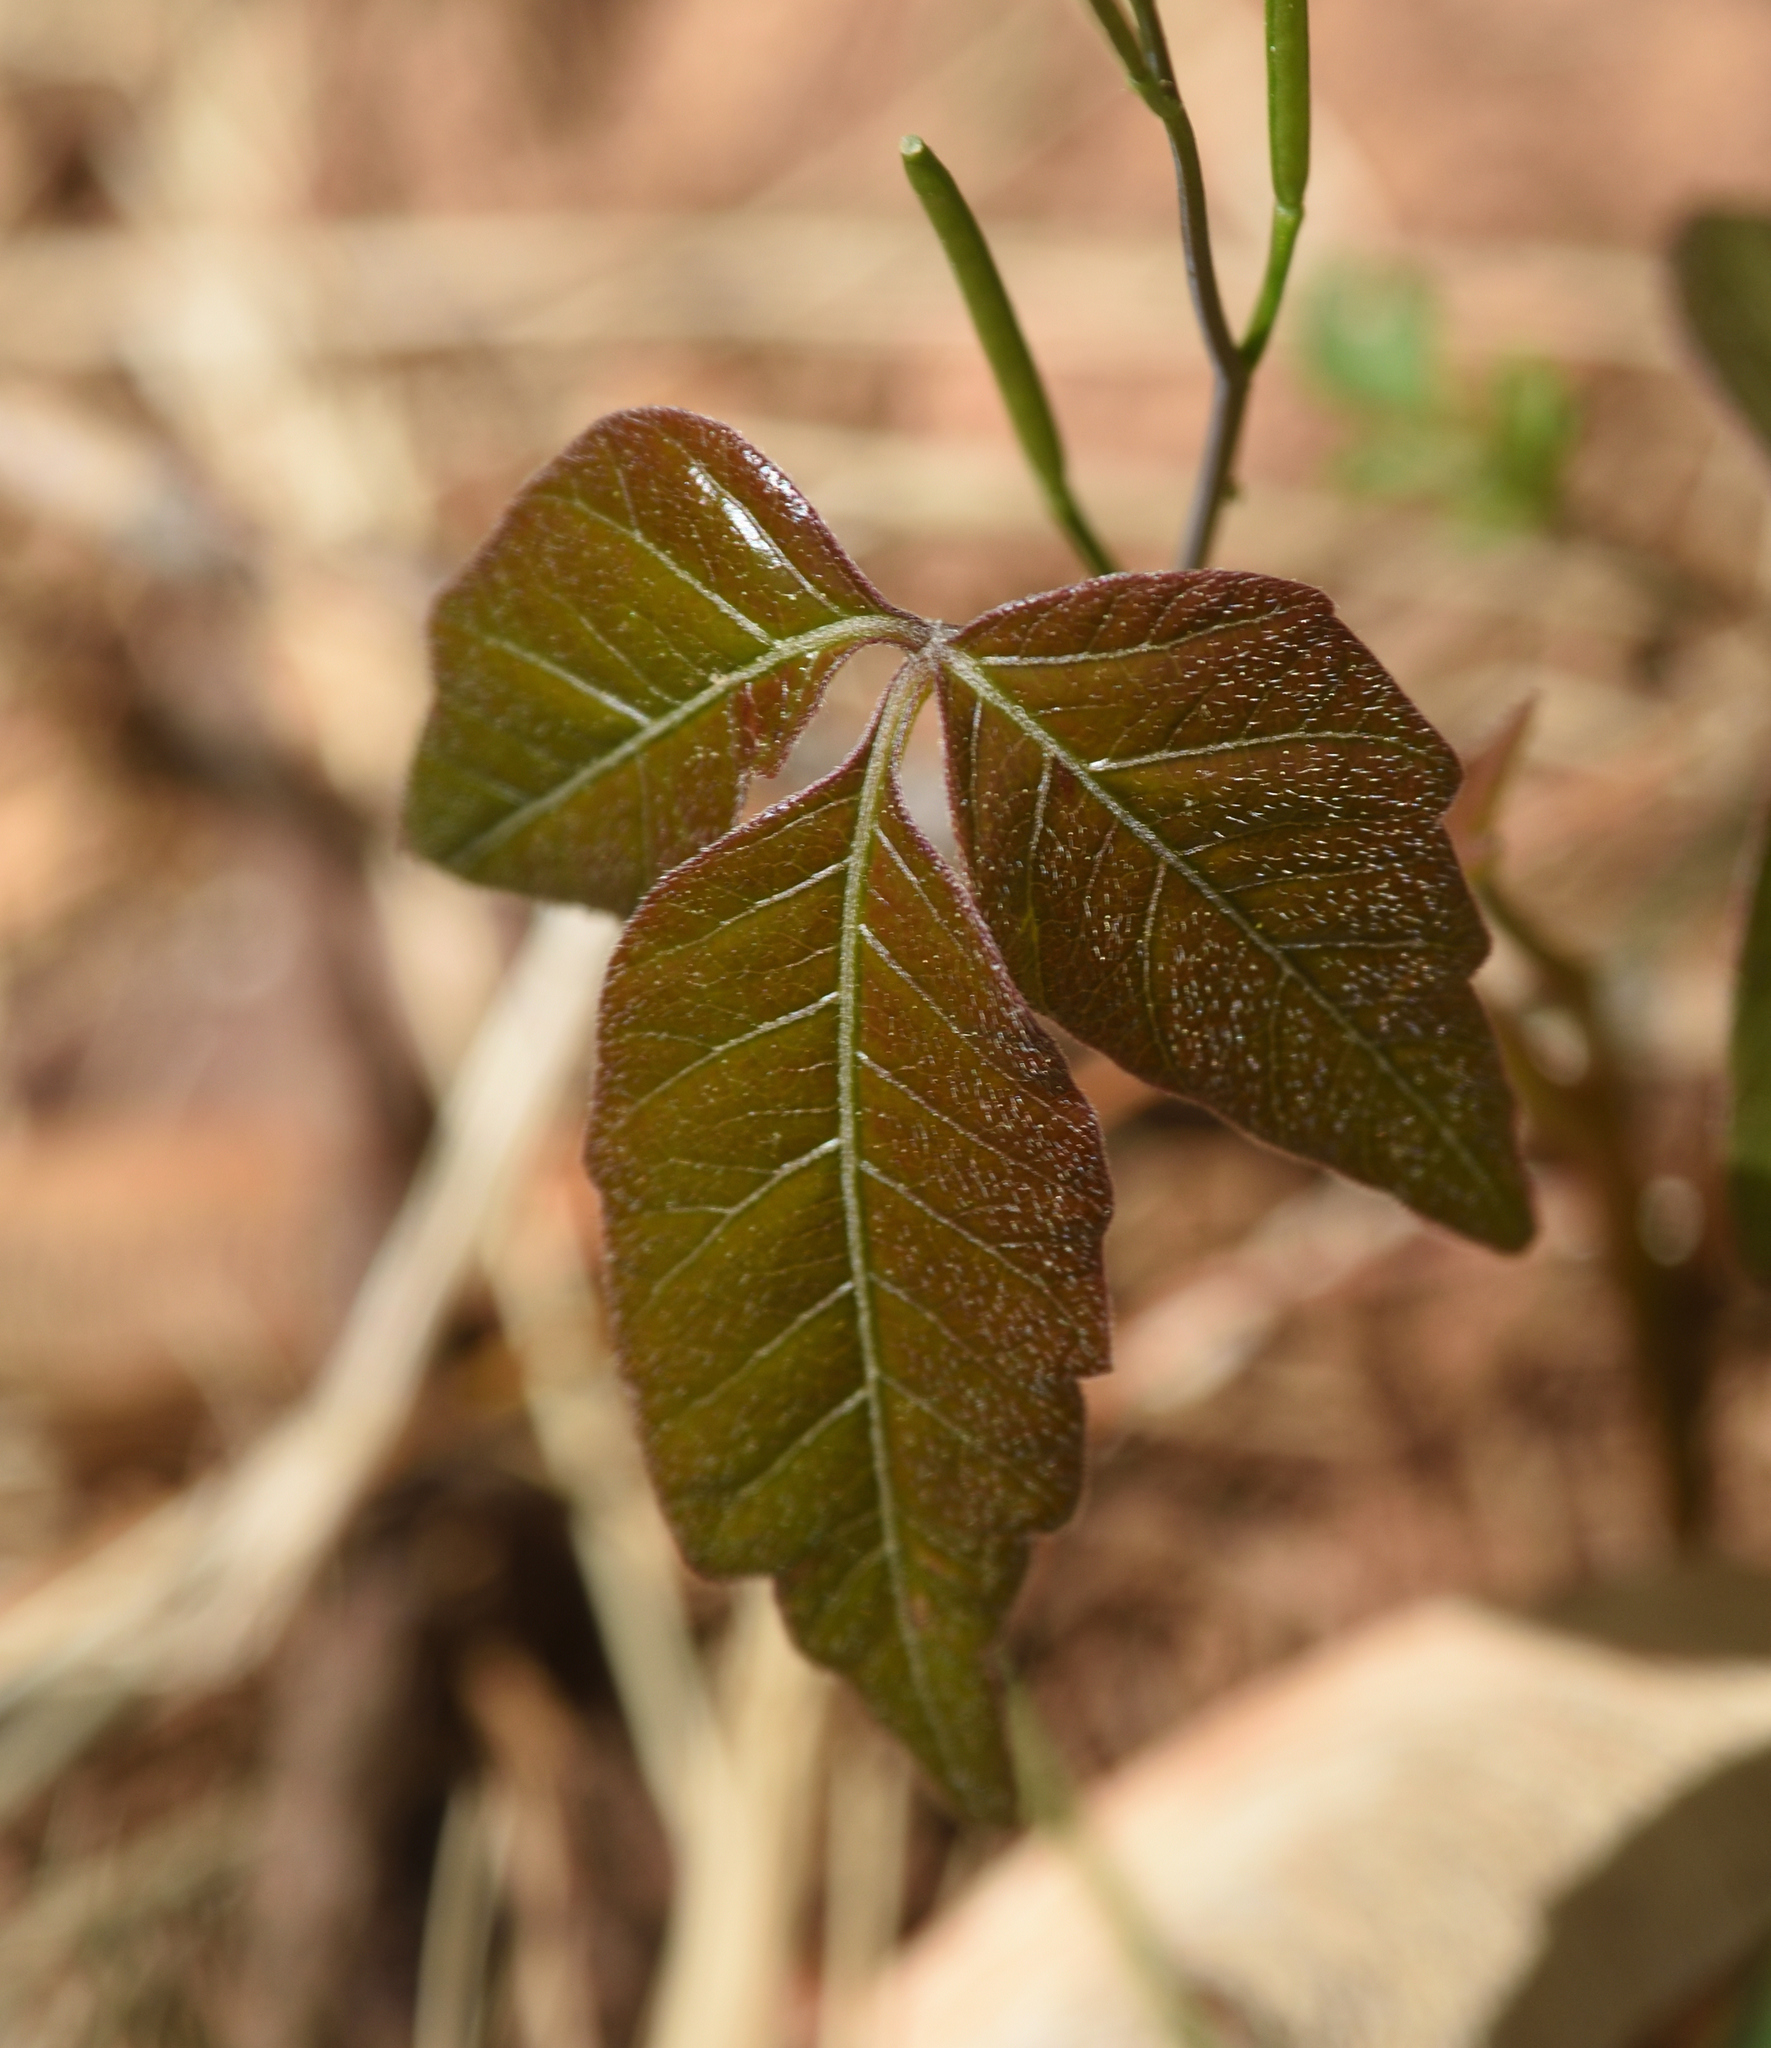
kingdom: Plantae
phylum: Tracheophyta
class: Magnoliopsida
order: Sapindales
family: Anacardiaceae
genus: Toxicodendron
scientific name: Toxicodendron radicans
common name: Poison ivy
